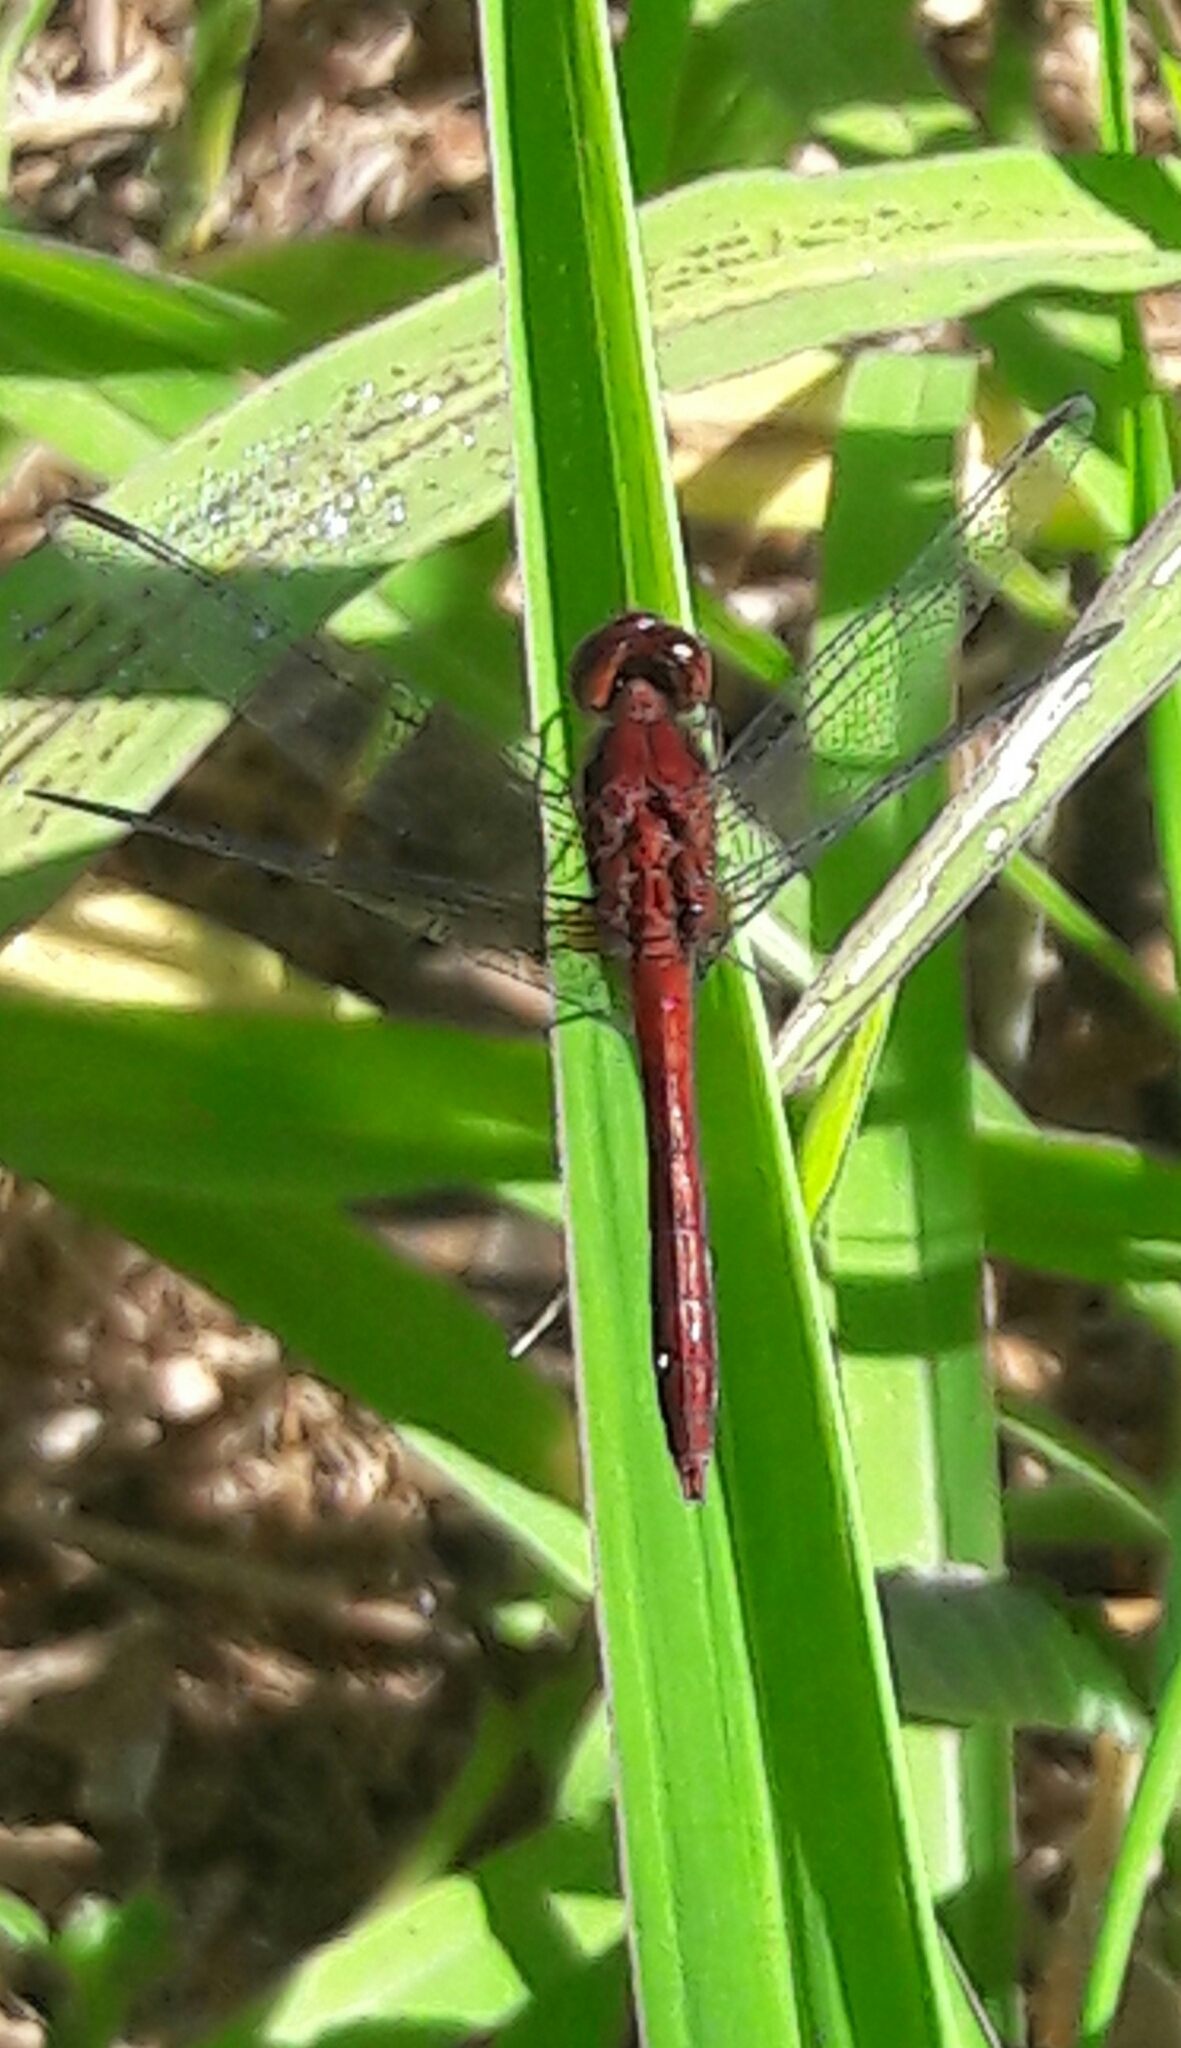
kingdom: Animalia
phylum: Arthropoda
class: Insecta
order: Odonata
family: Libellulidae
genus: Erythrodiplax
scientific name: Erythrodiplax fusca
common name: Red-faced dragonlet
